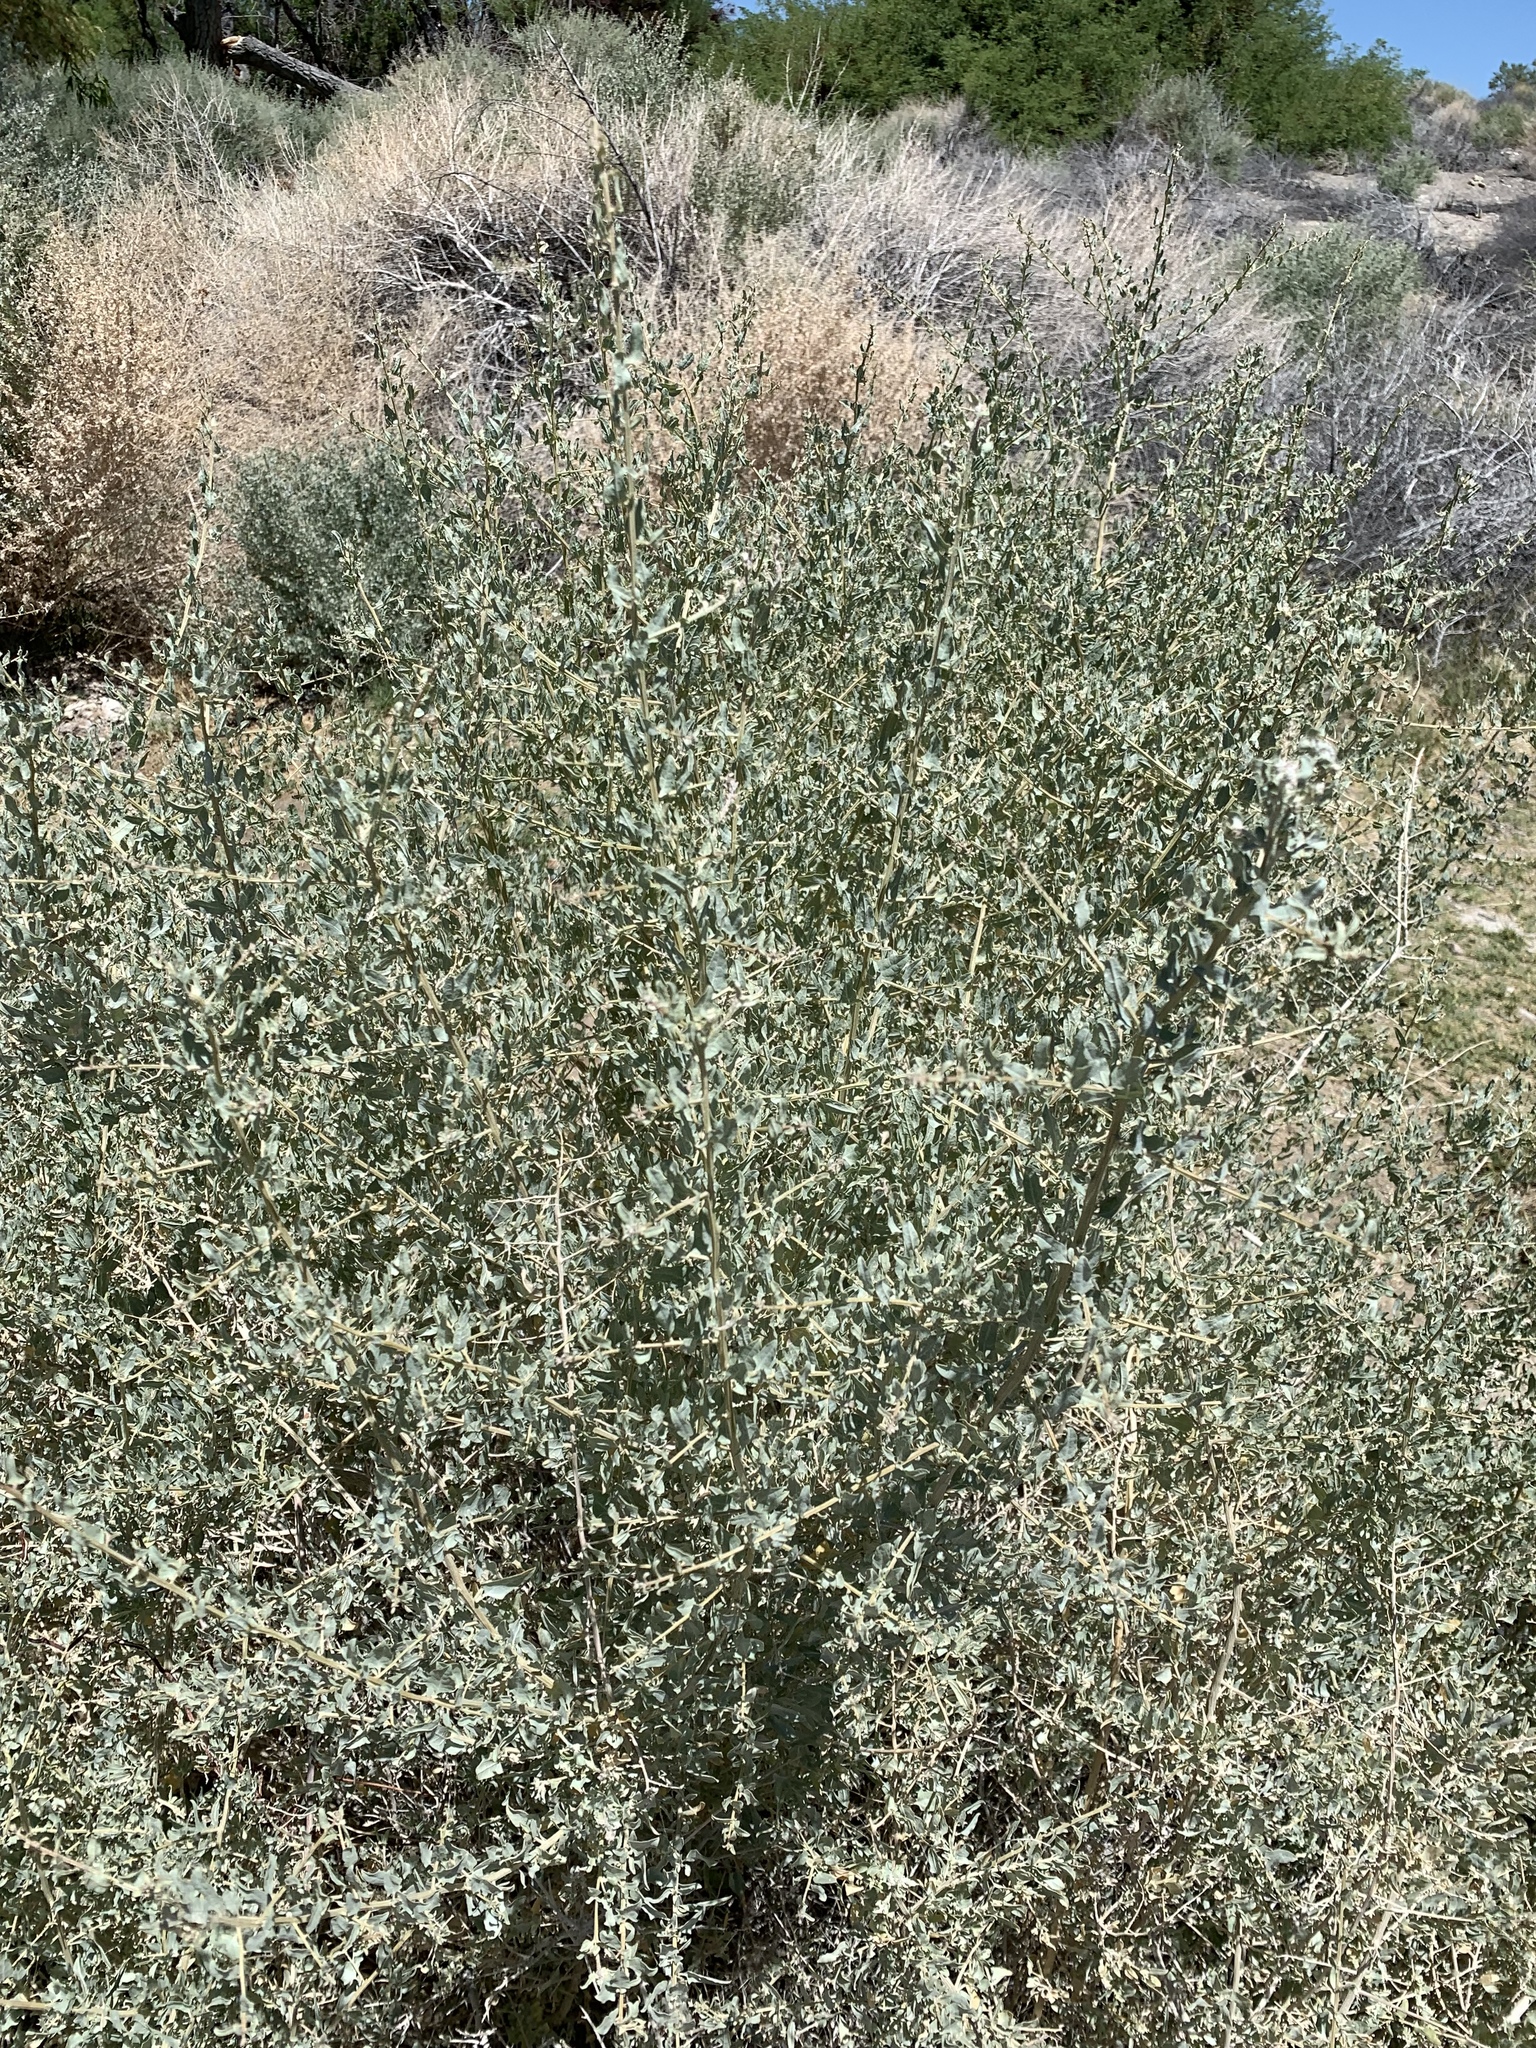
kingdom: Plantae
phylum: Tracheophyta
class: Magnoliopsida
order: Caryophyllales
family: Amaranthaceae
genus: Atriplex
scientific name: Atriplex lentiformis
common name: Big saltbush
